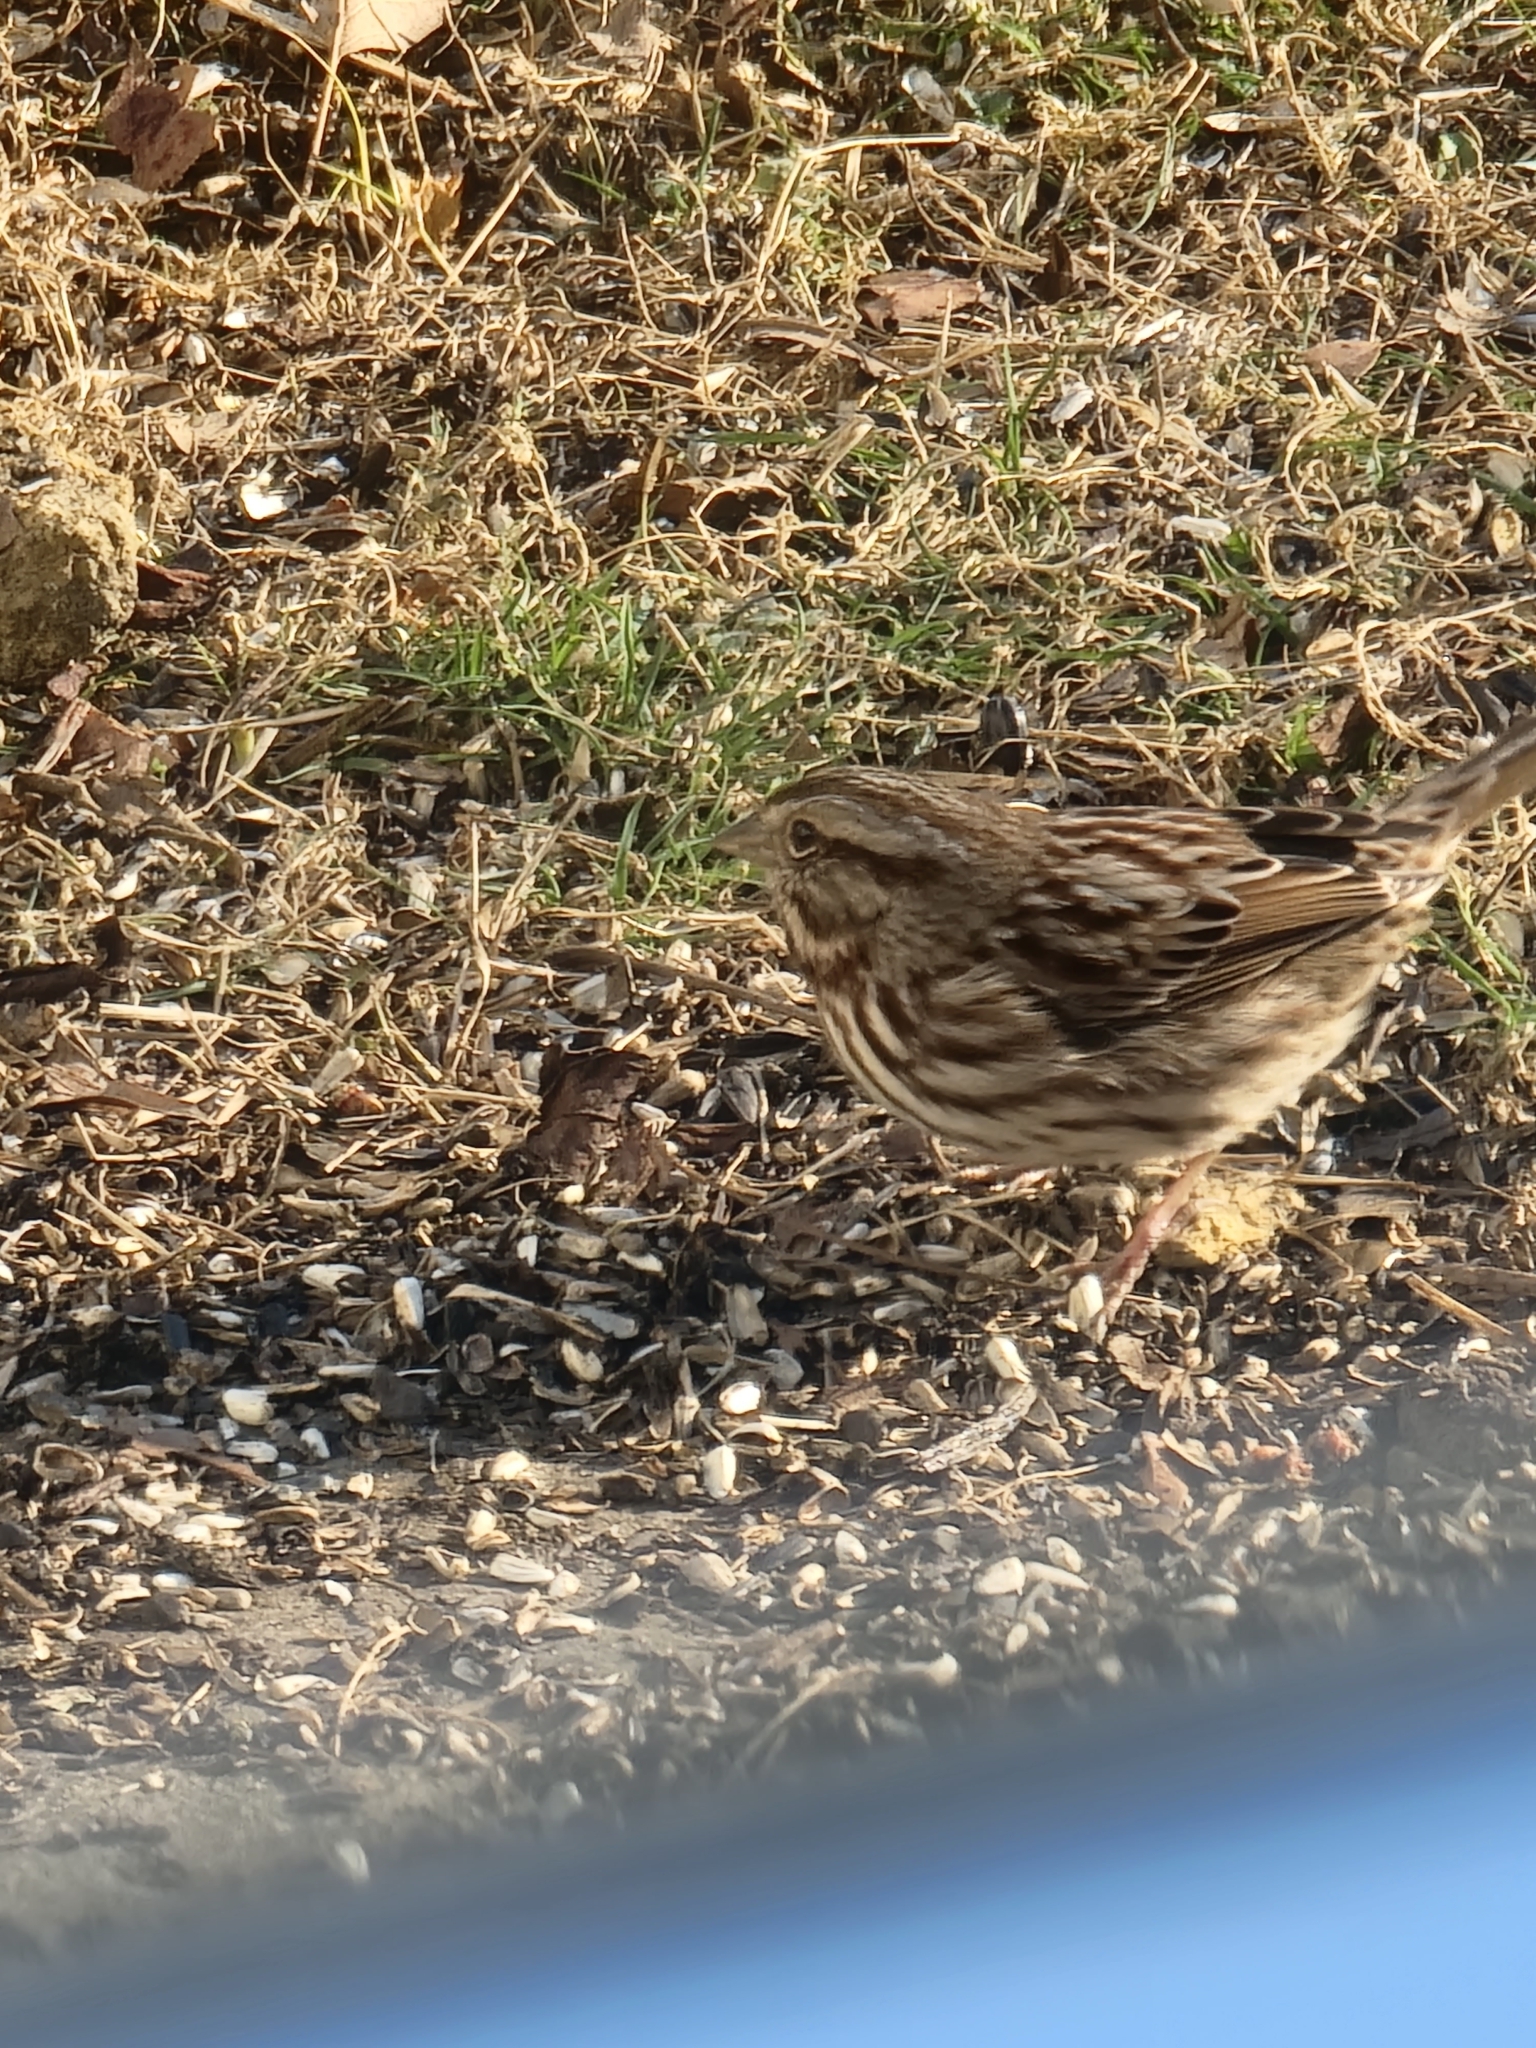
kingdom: Animalia
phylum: Chordata
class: Aves
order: Passeriformes
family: Passerellidae
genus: Melospiza
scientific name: Melospiza melodia
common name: Song sparrow
